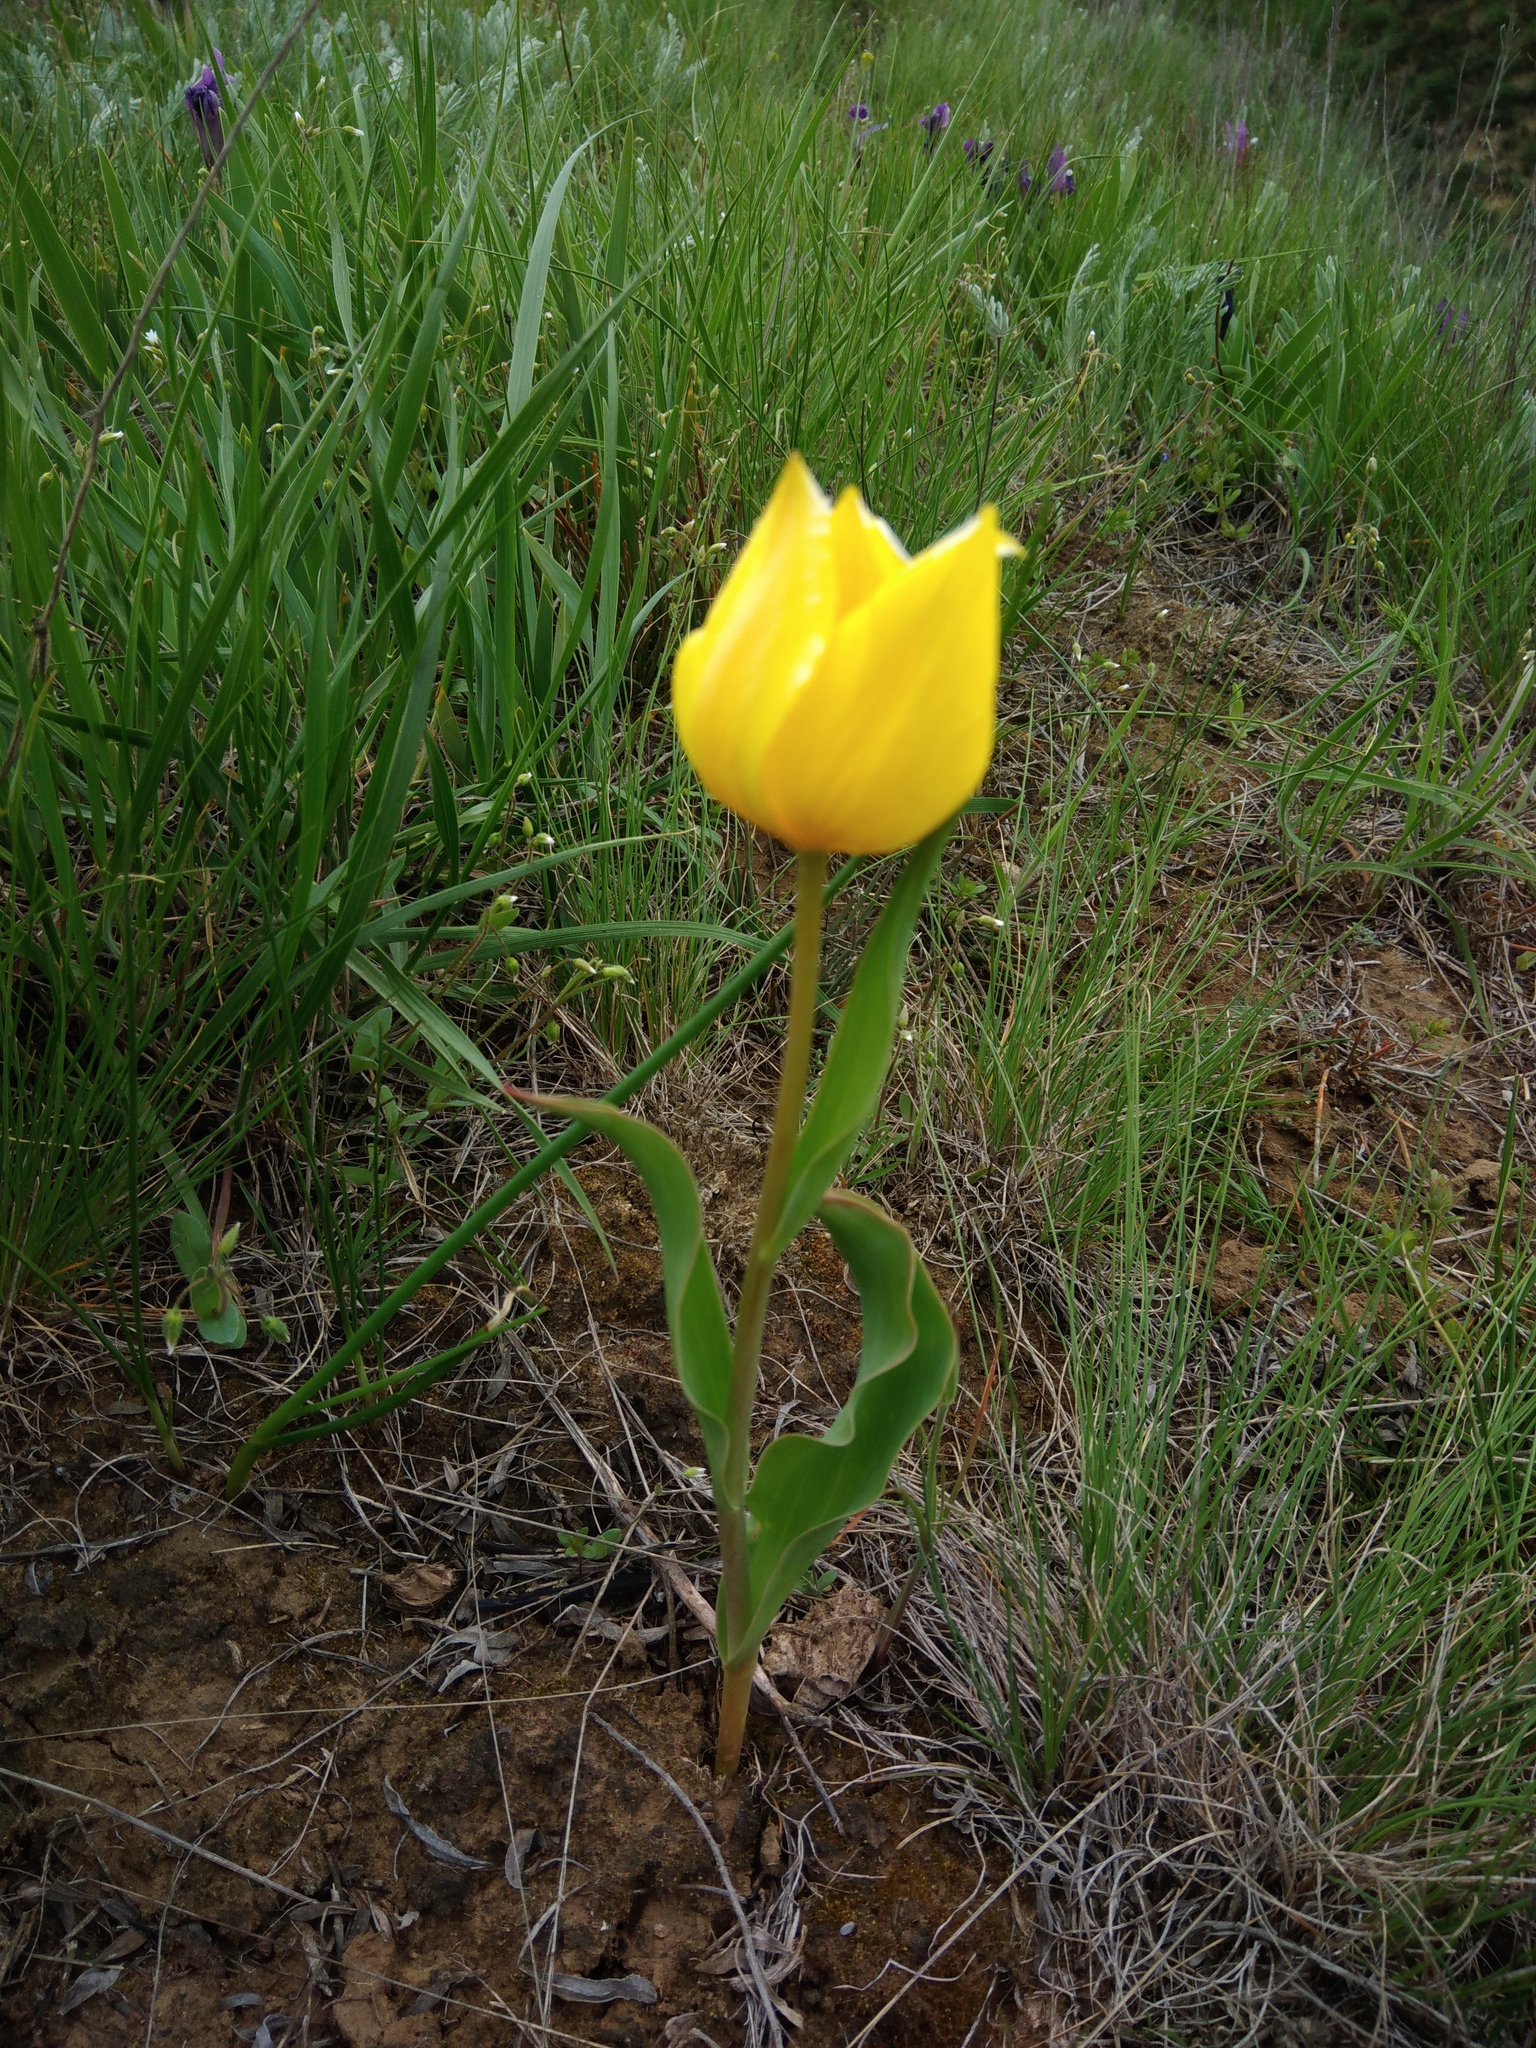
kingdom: Plantae
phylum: Tracheophyta
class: Liliopsida
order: Liliales
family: Liliaceae
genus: Tulipa
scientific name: Tulipa suaveolens
